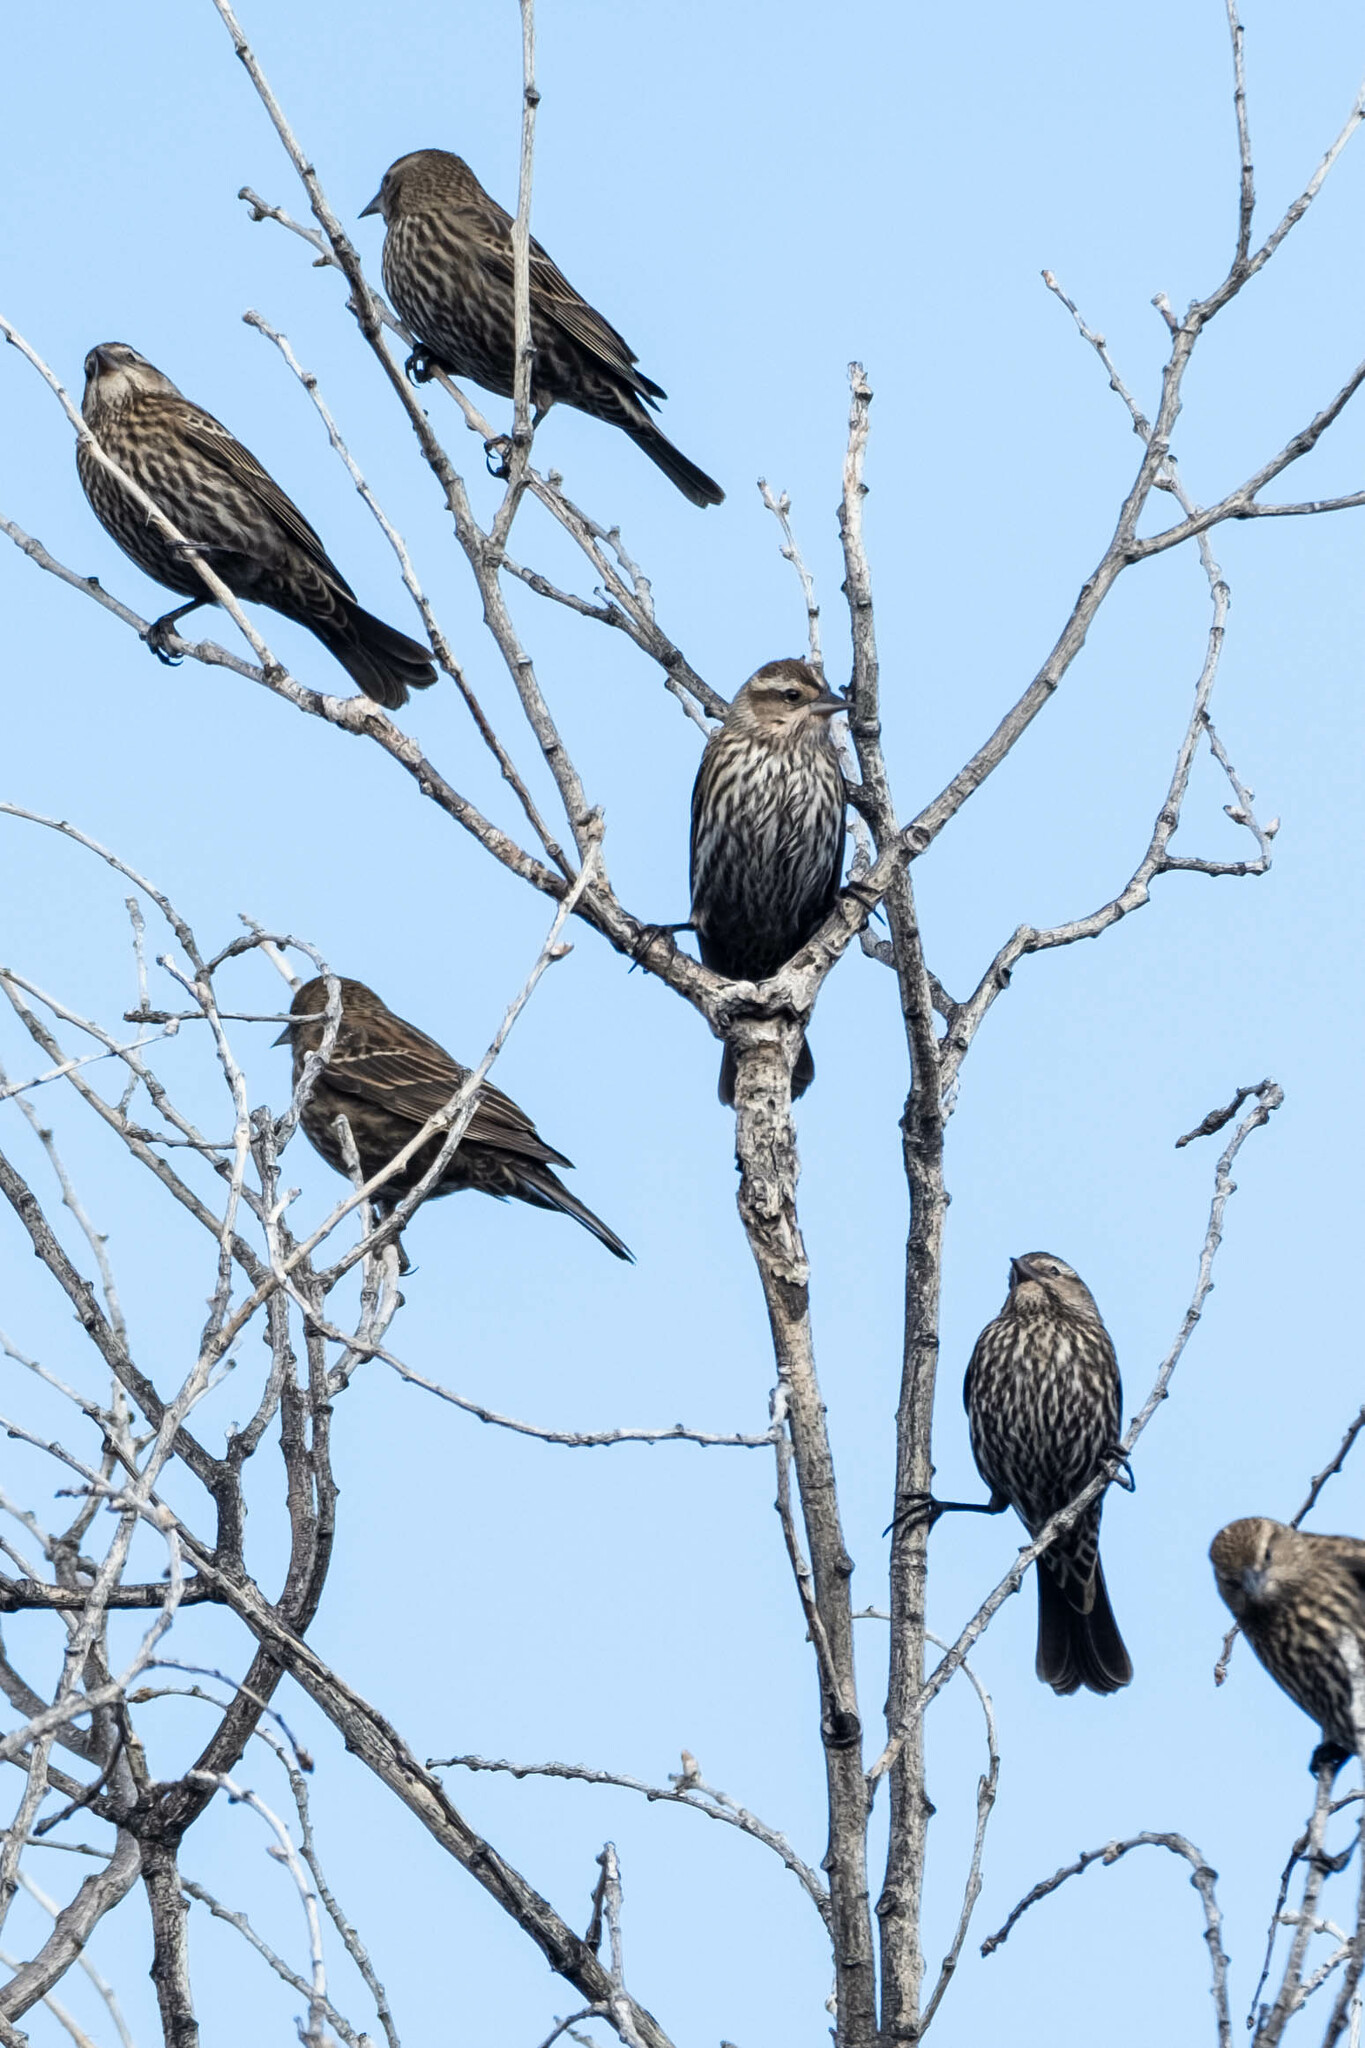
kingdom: Animalia
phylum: Chordata
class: Aves
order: Passeriformes
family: Icteridae
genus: Agelaius
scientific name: Agelaius phoeniceus
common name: Red-winged blackbird
